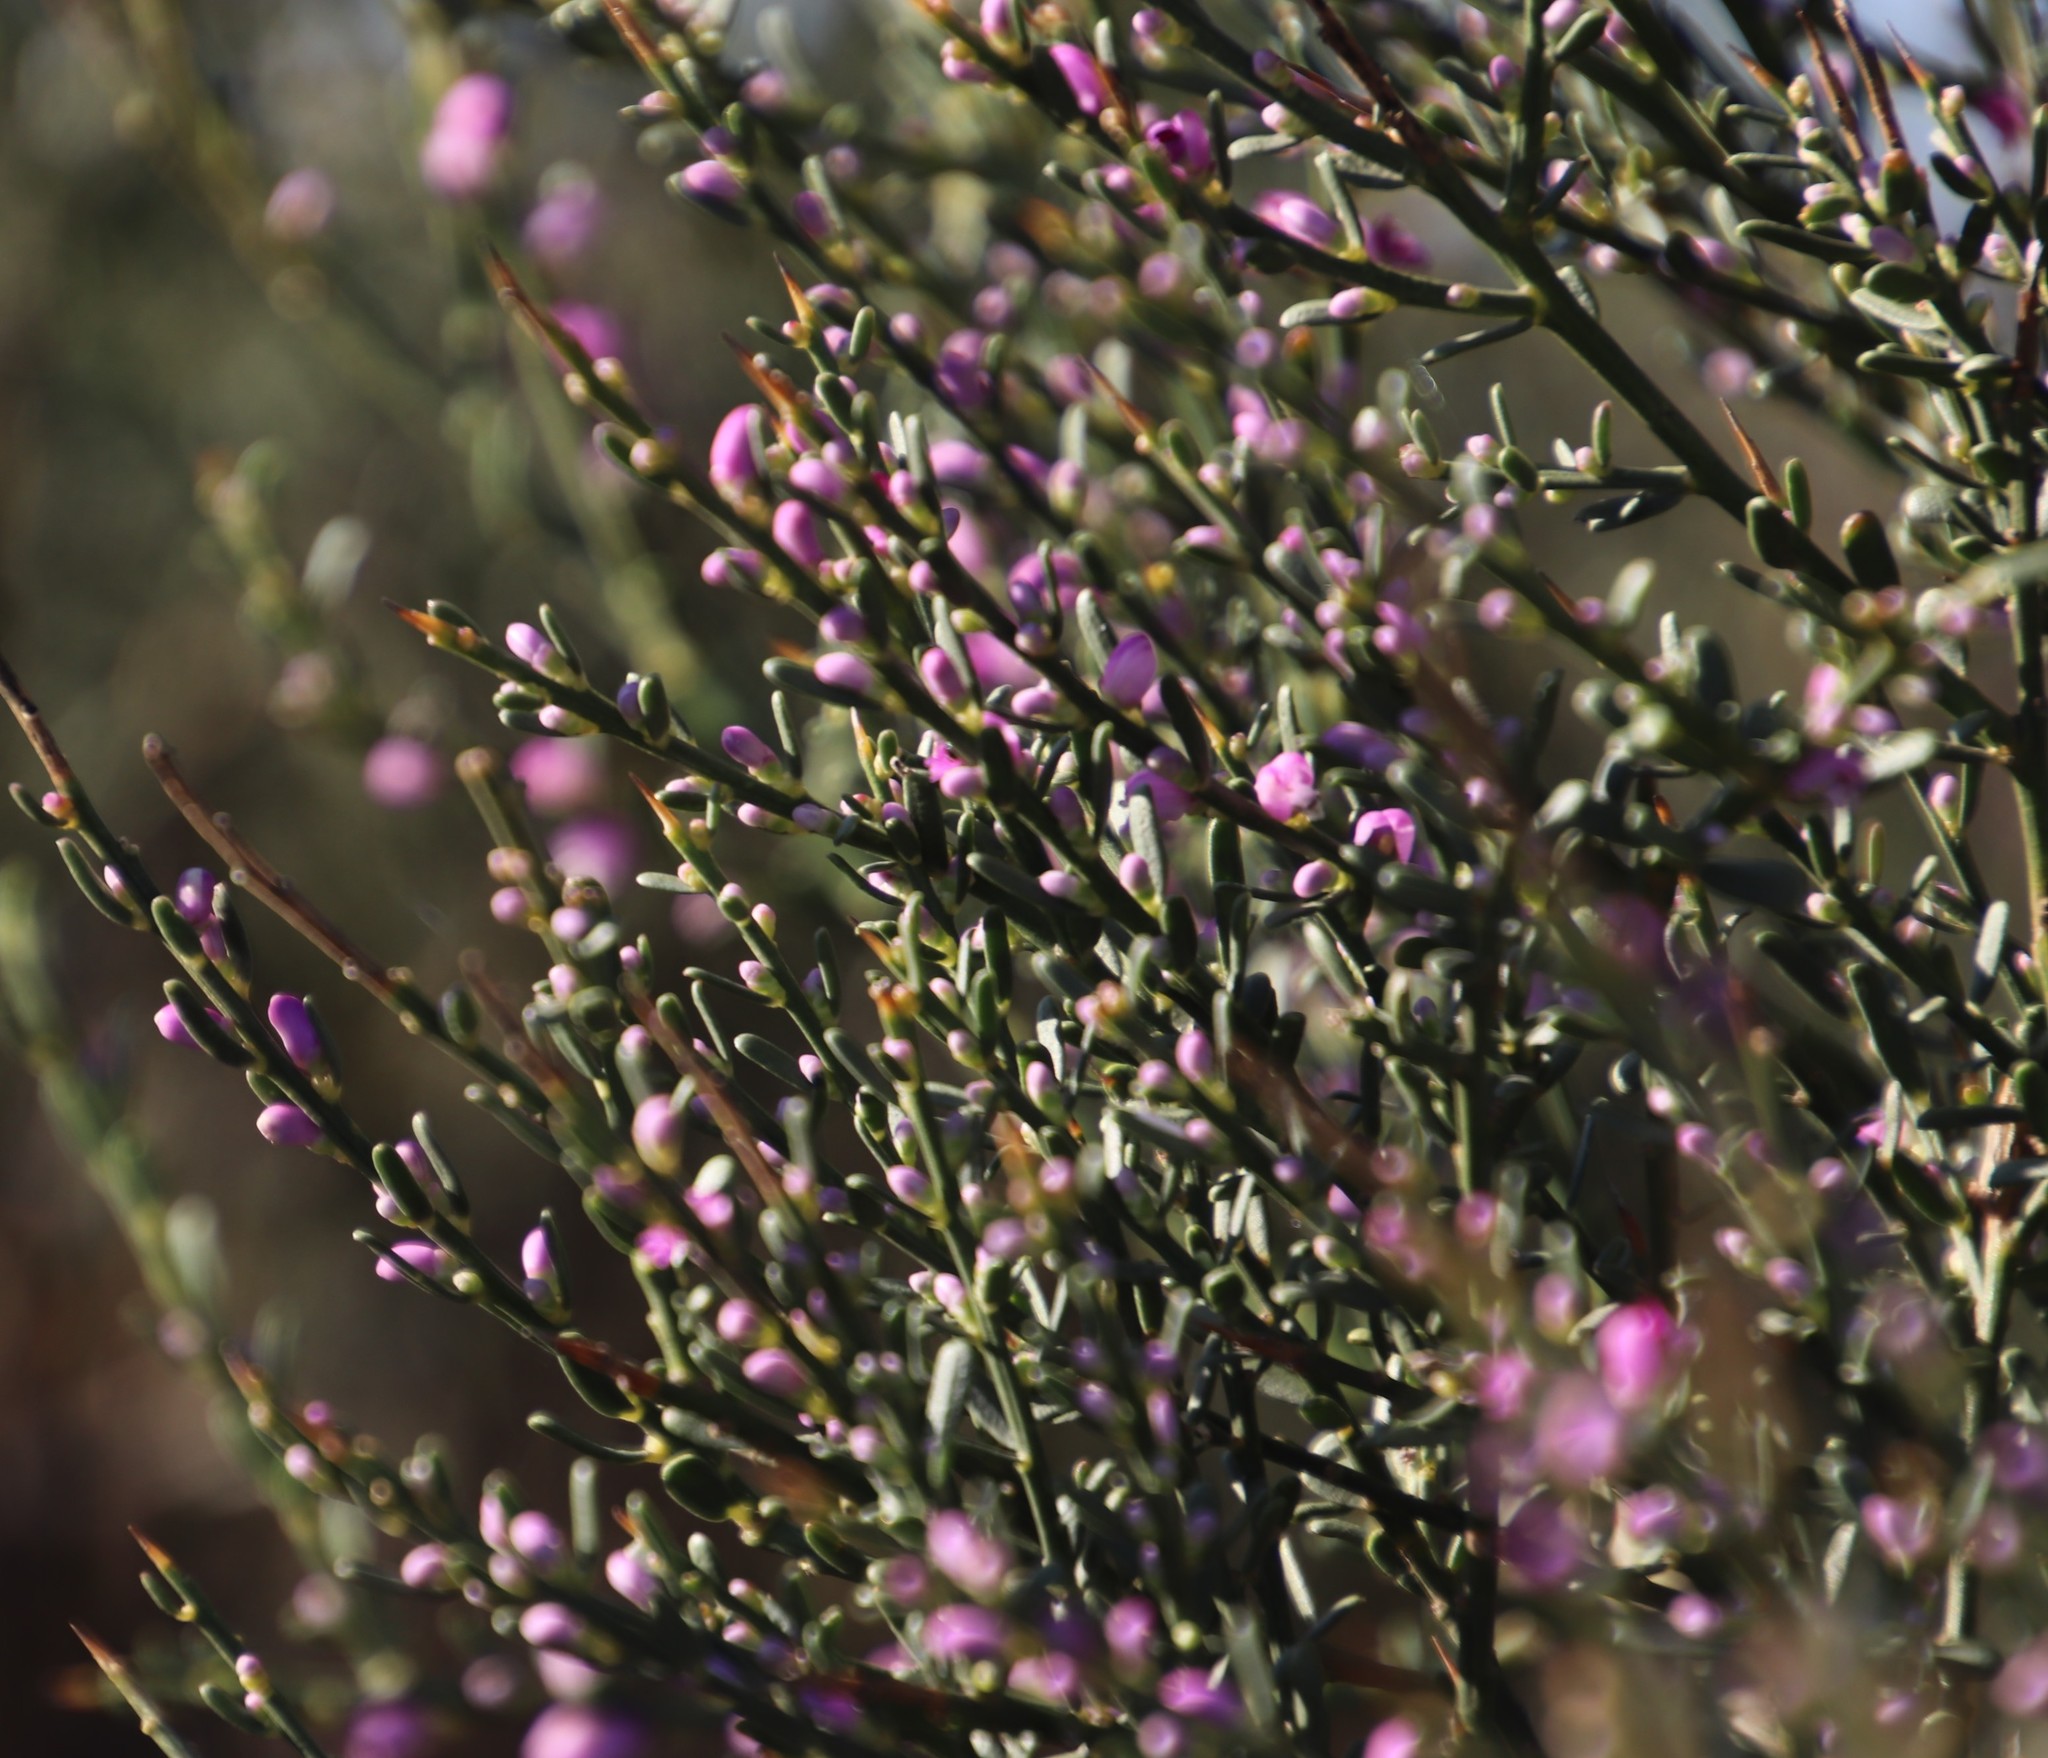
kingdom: Plantae
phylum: Tracheophyta
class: Magnoliopsida
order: Fabales
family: Polygalaceae
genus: Muraltia
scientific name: Muraltia spinosa
